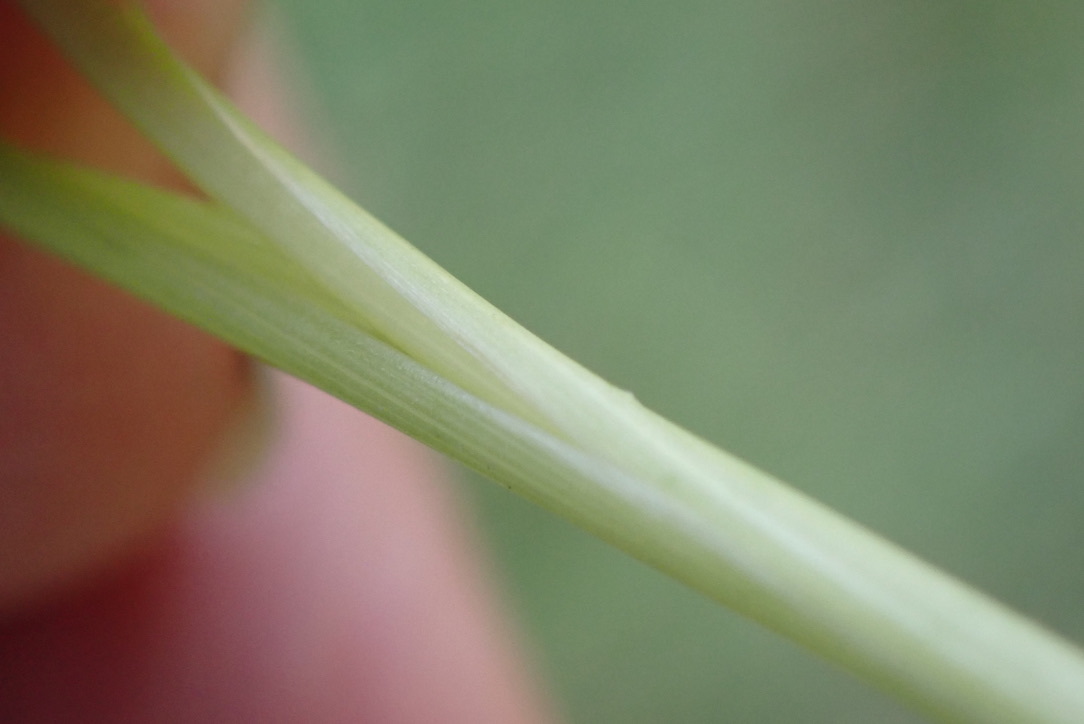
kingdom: Plantae
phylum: Tracheophyta
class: Liliopsida
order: Poales
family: Poaceae
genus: Hordeum
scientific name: Hordeum brachyantherum
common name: Meadow barley
